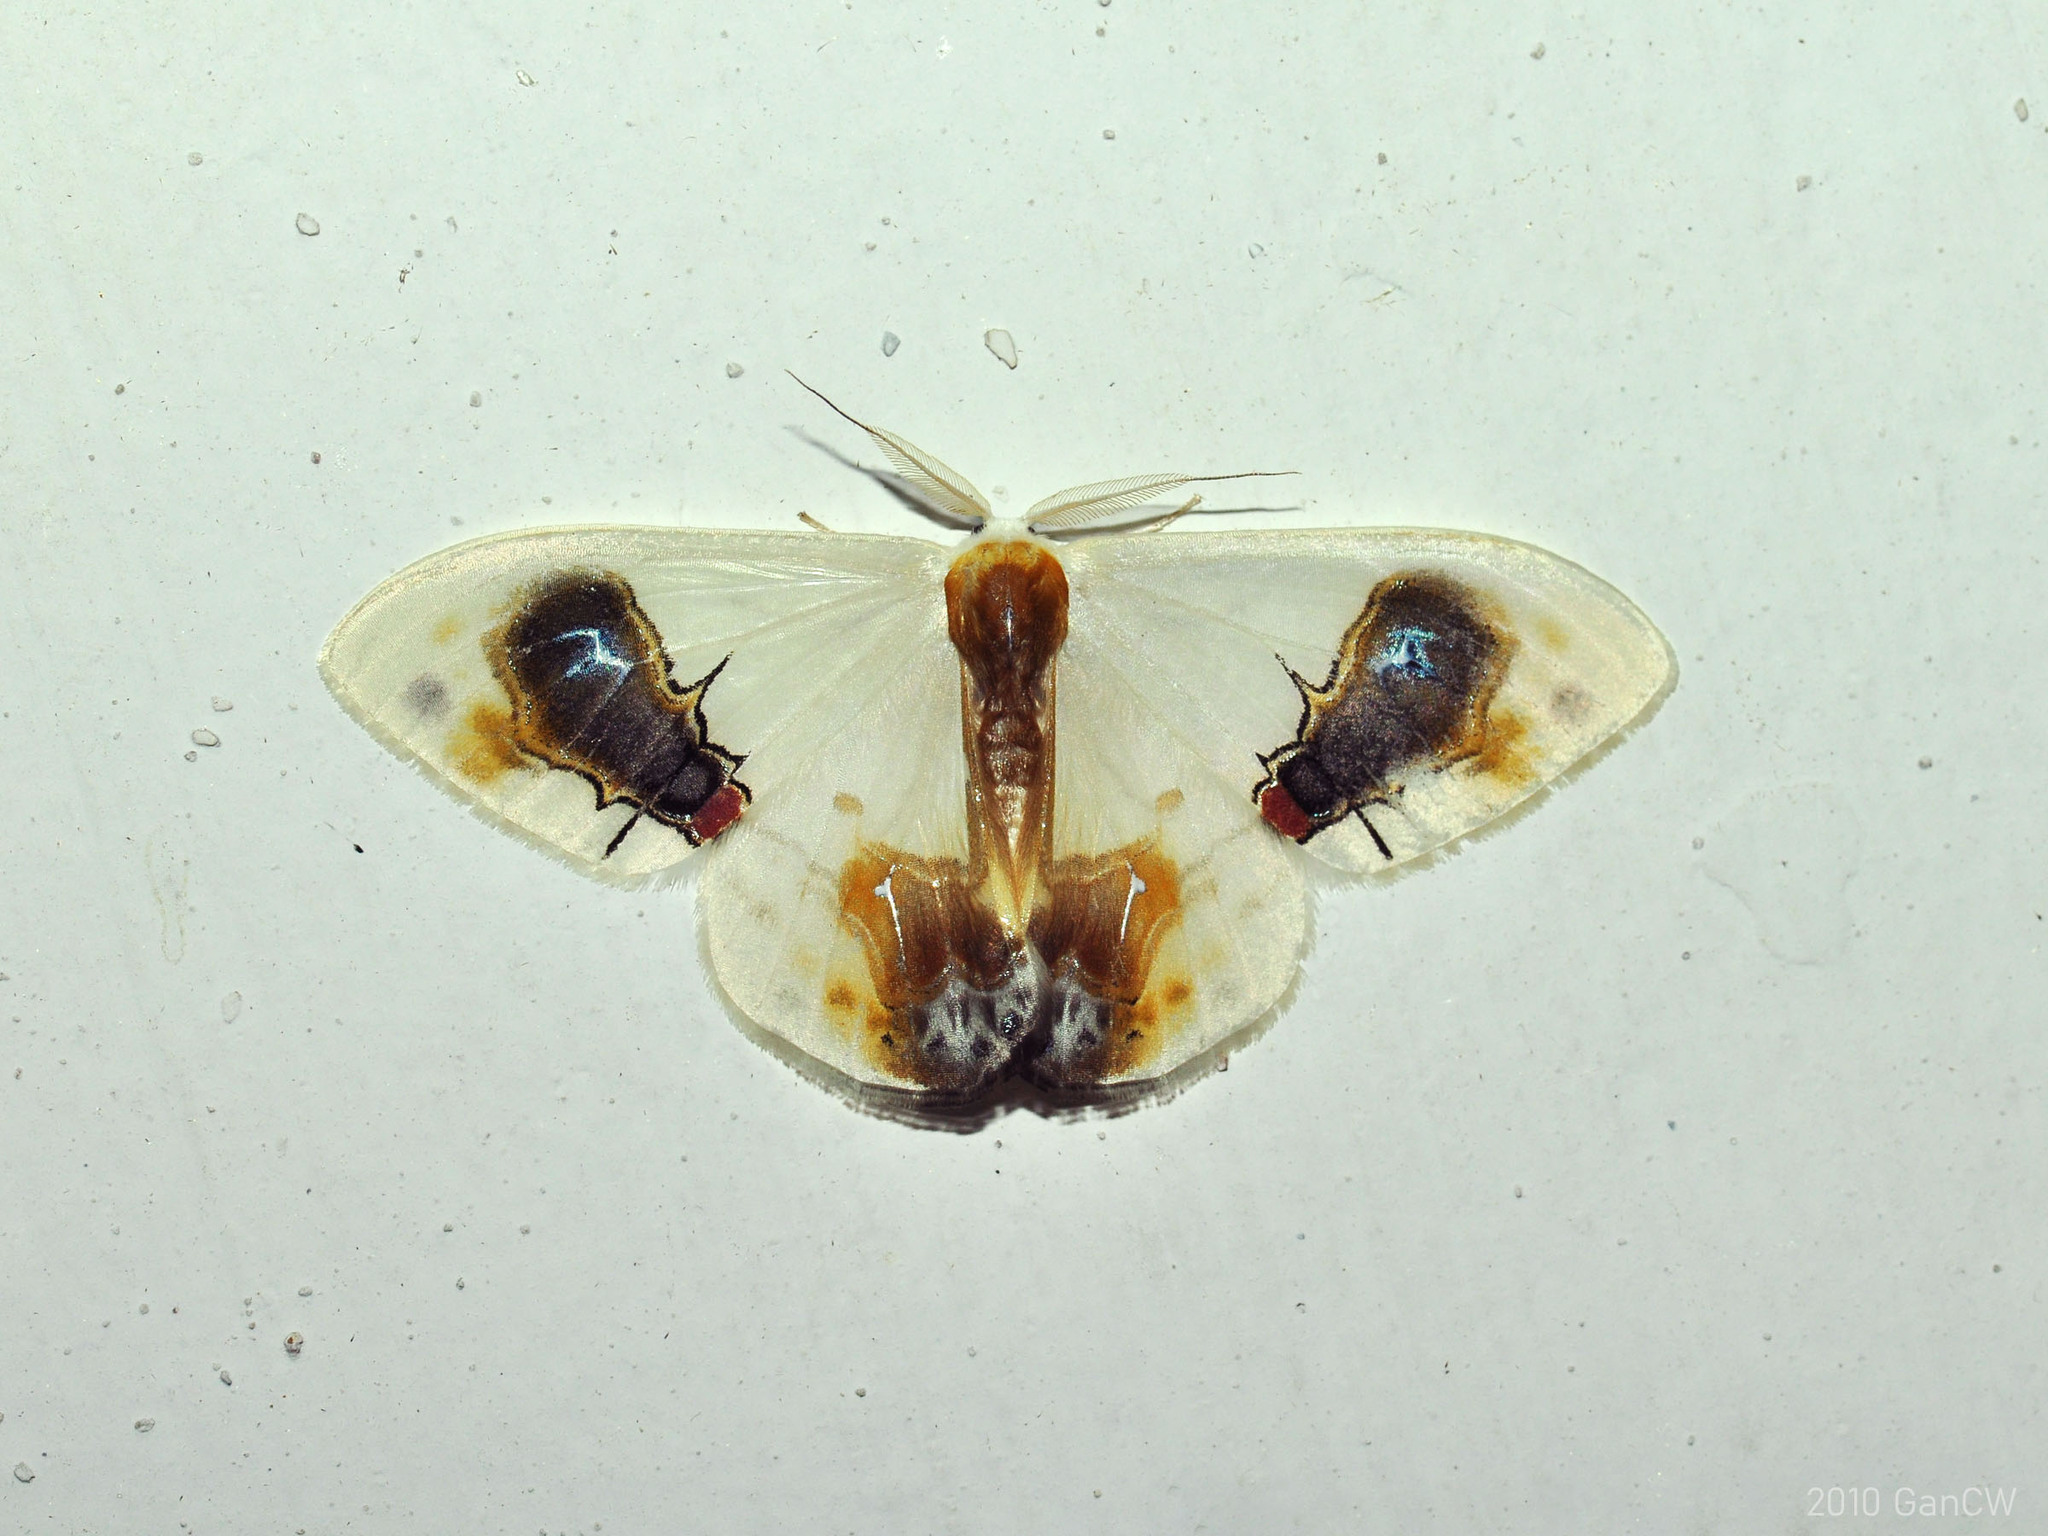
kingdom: Animalia
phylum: Arthropoda
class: Insecta
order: Lepidoptera
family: Drepanidae
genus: Macrocilix
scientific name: Macrocilix maia
